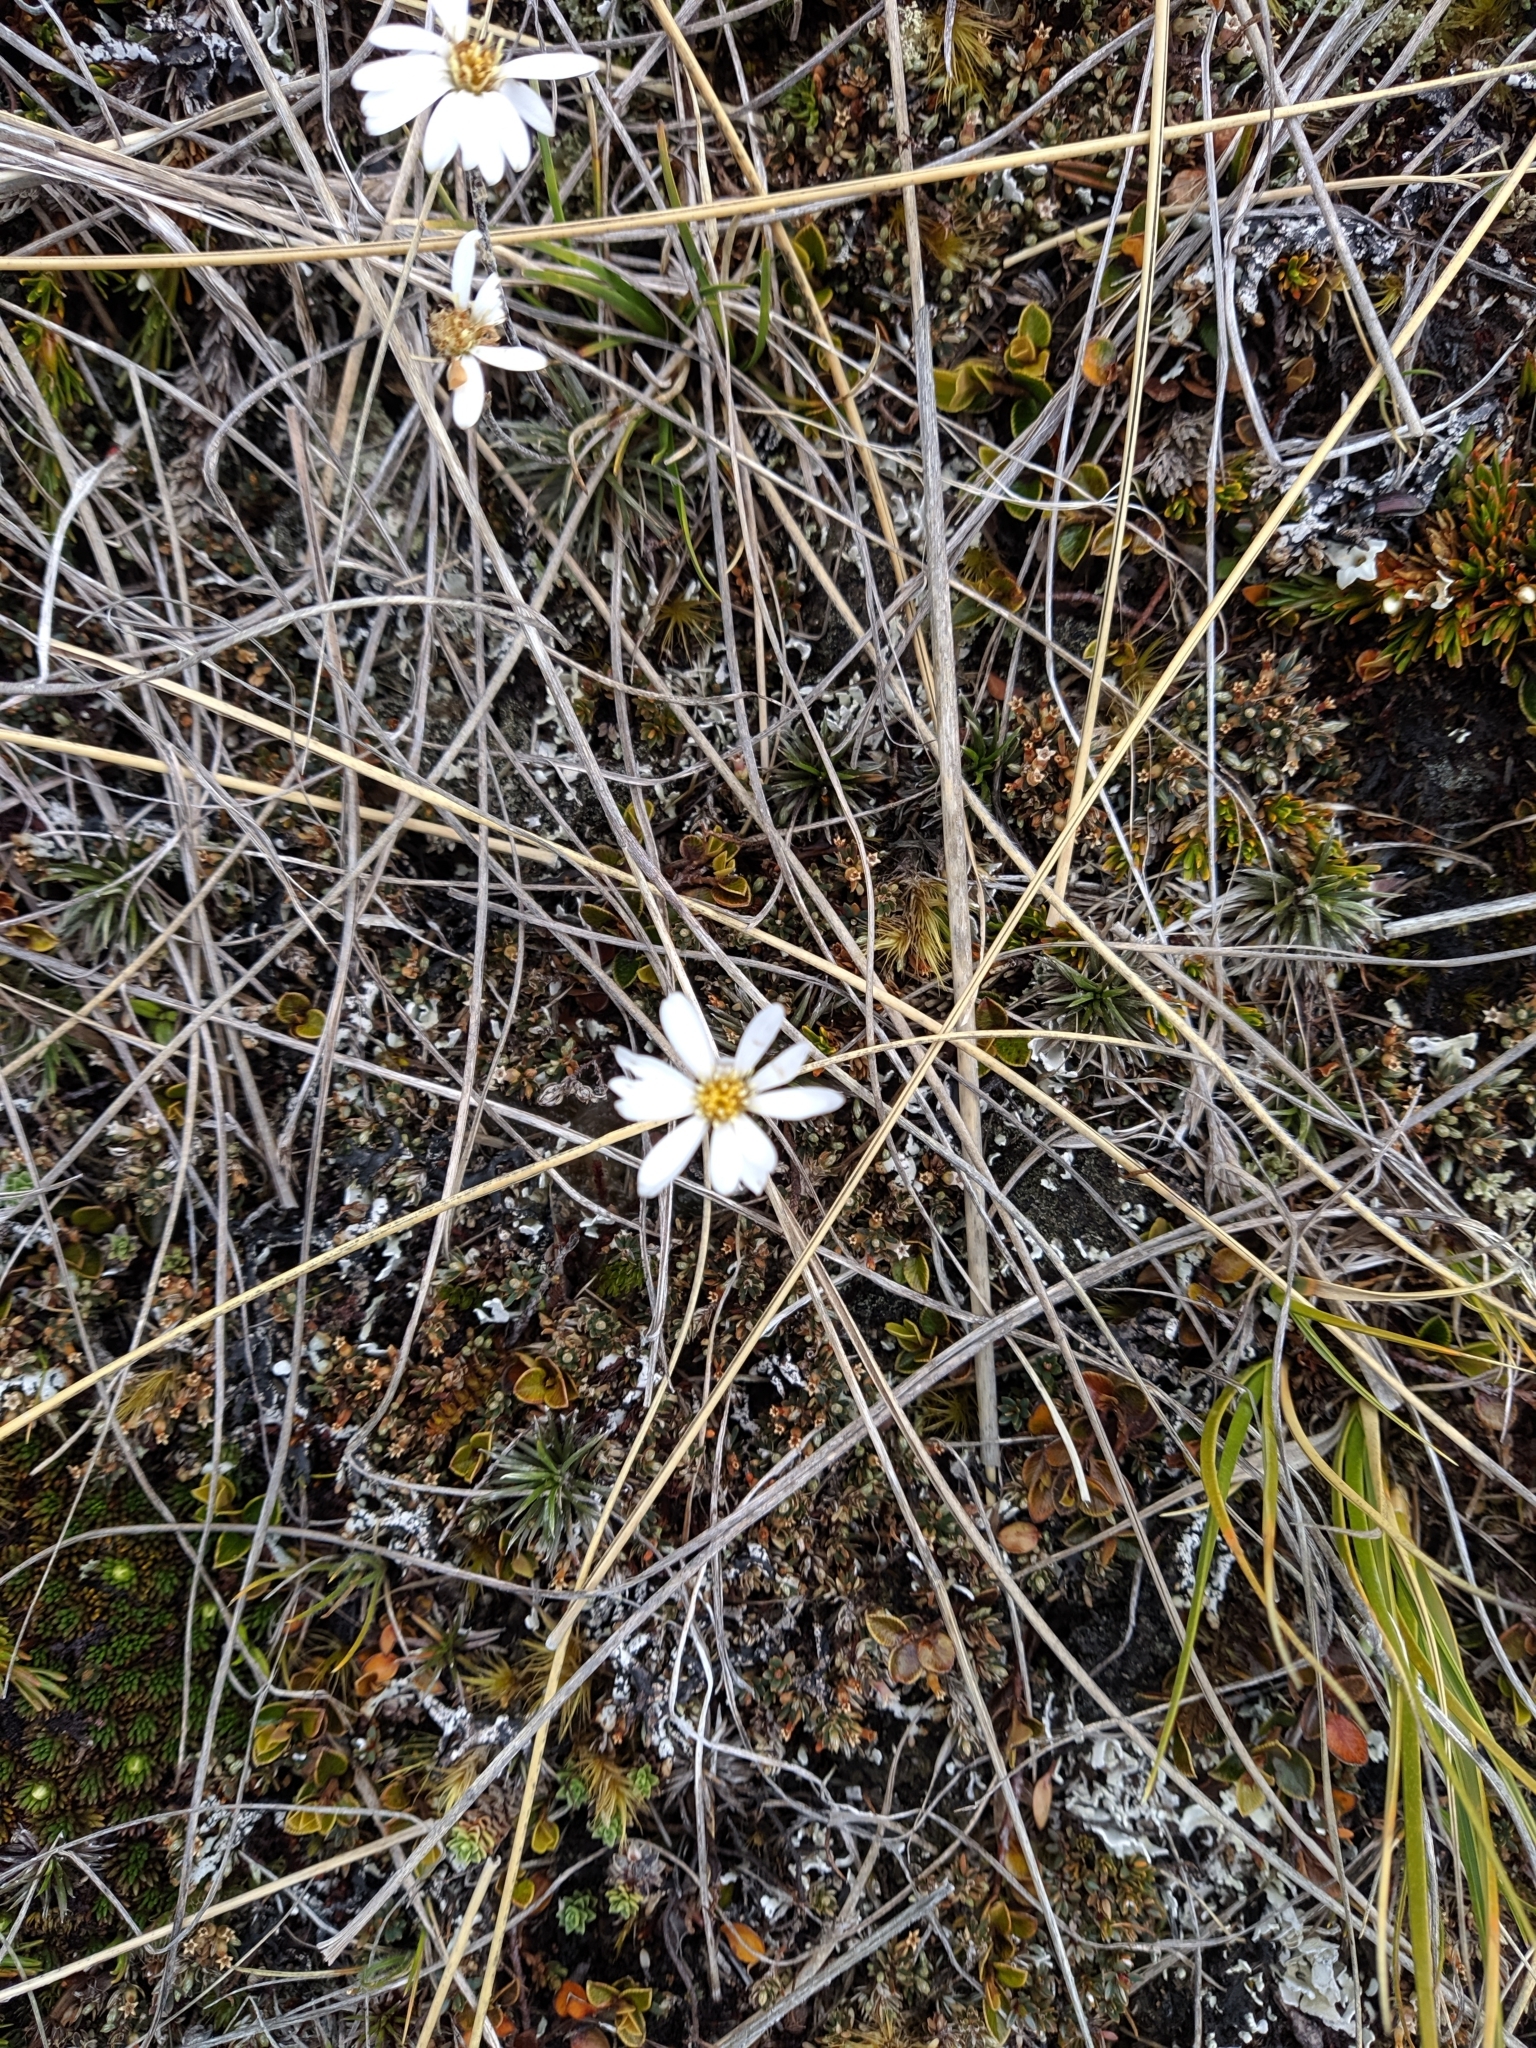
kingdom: Plantae
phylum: Tracheophyta
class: Magnoliopsida
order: Asterales
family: Asteraceae
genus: Celmisia
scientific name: Celmisia laricifolia
